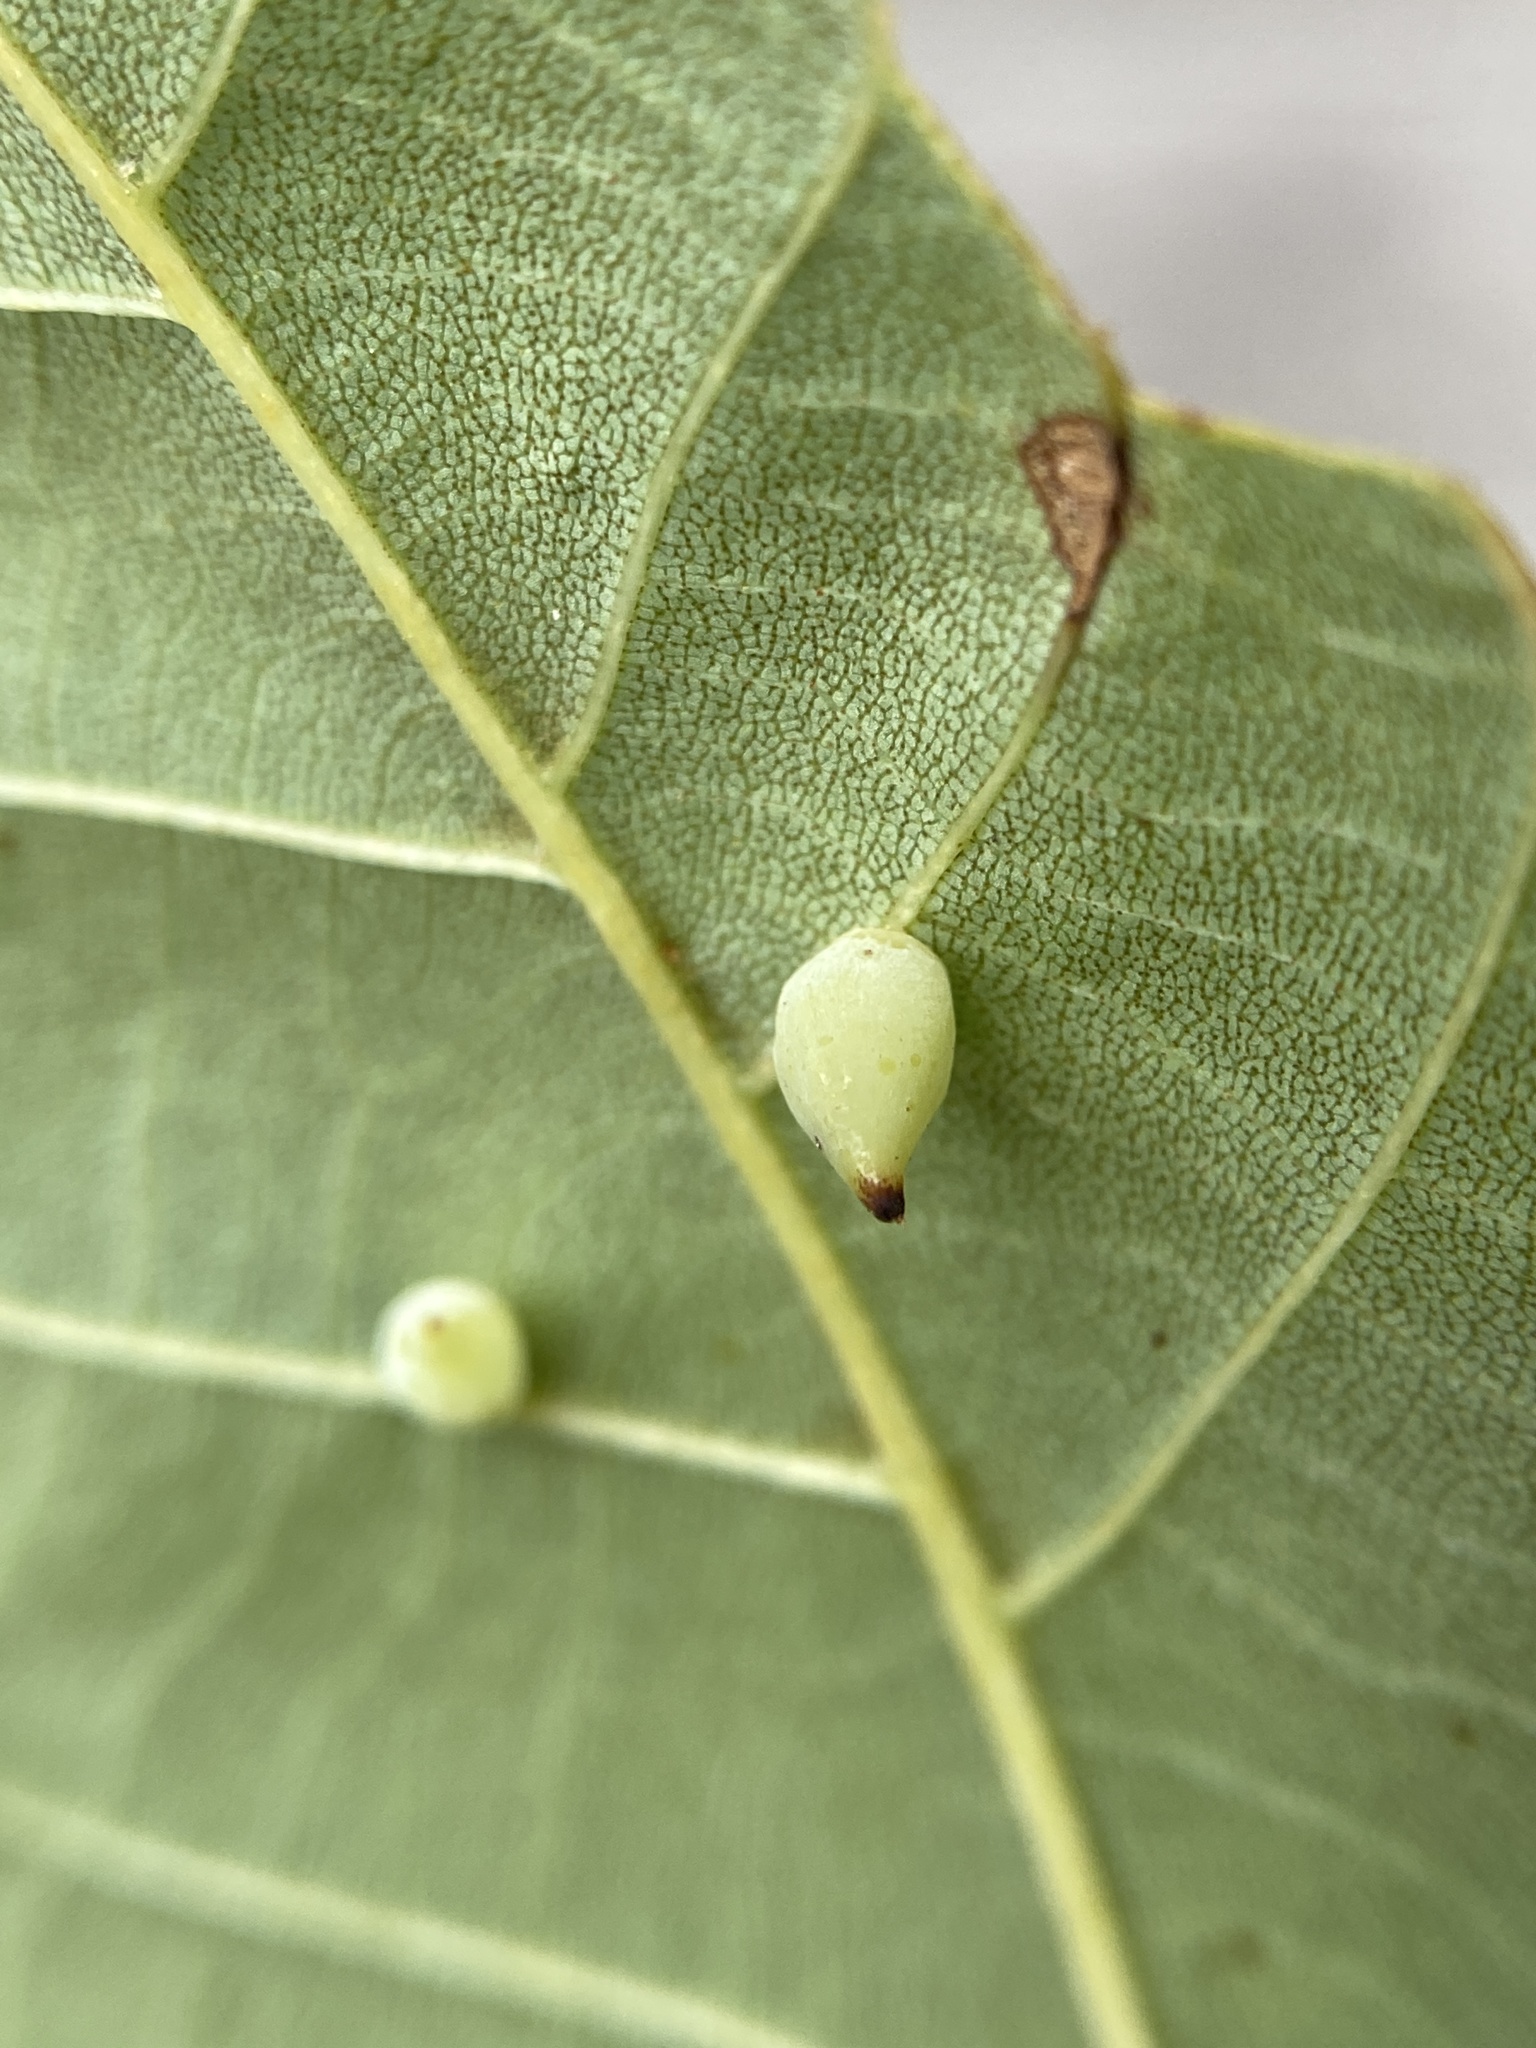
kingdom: Animalia
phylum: Arthropoda
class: Insecta
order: Diptera
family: Cecidomyiidae
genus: Caryomyia
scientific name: Caryomyia caryaecola
